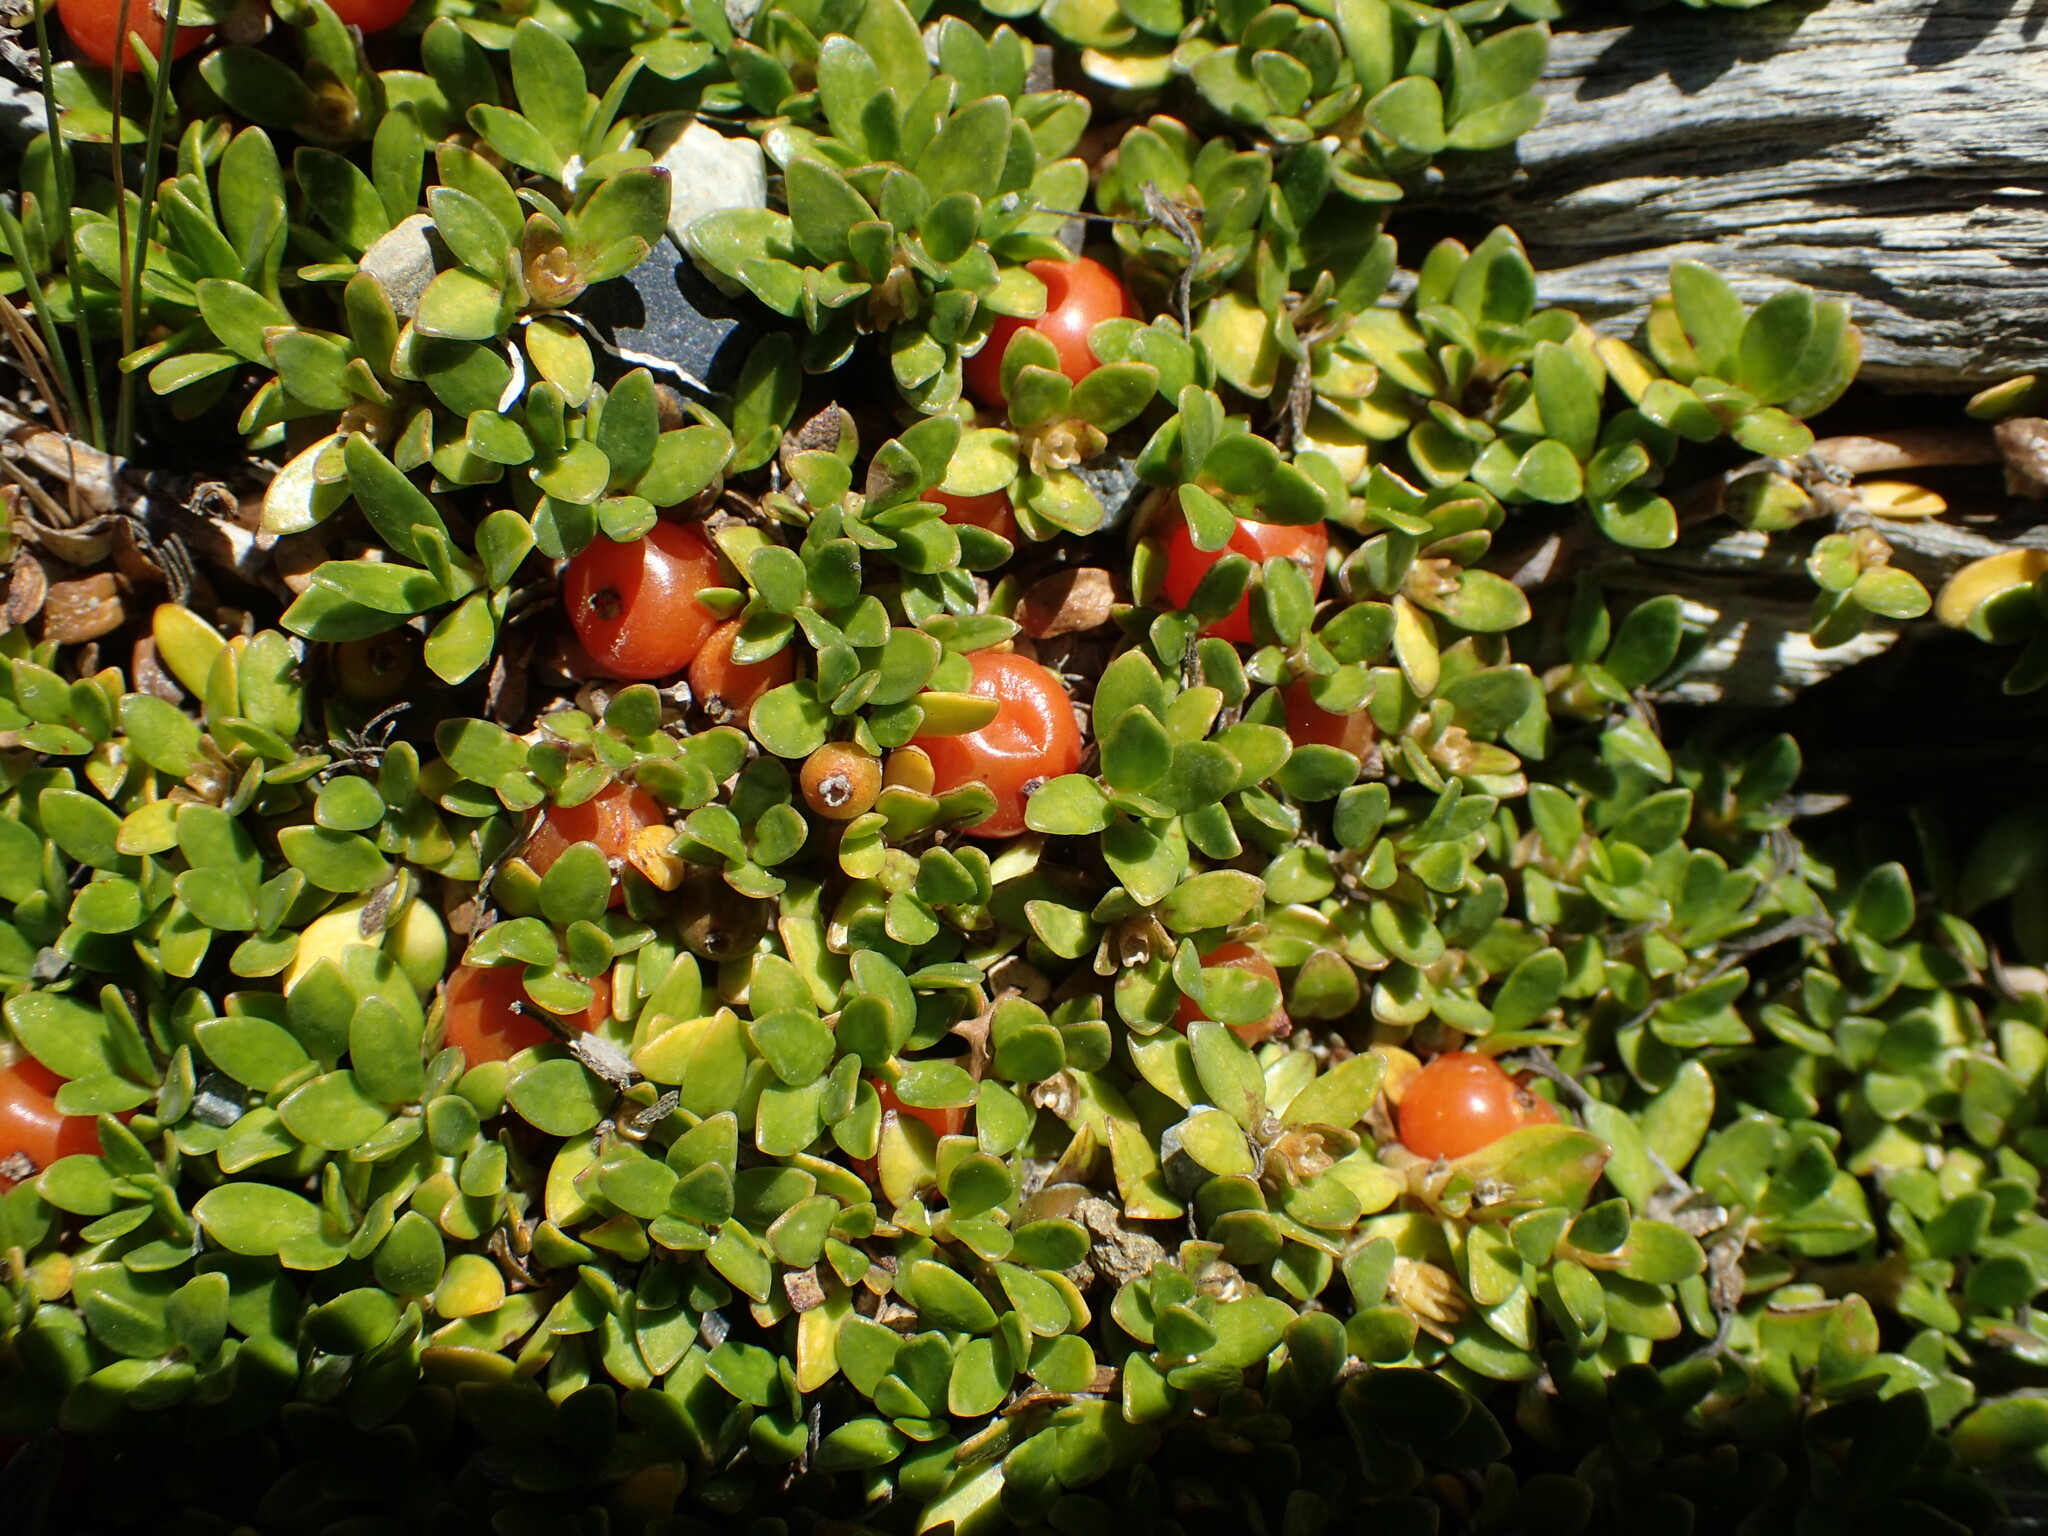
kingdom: Plantae
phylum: Tracheophyta
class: Magnoliopsida
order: Gentianales
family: Rubiaceae
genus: Coprosma
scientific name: Coprosma perpusilla
